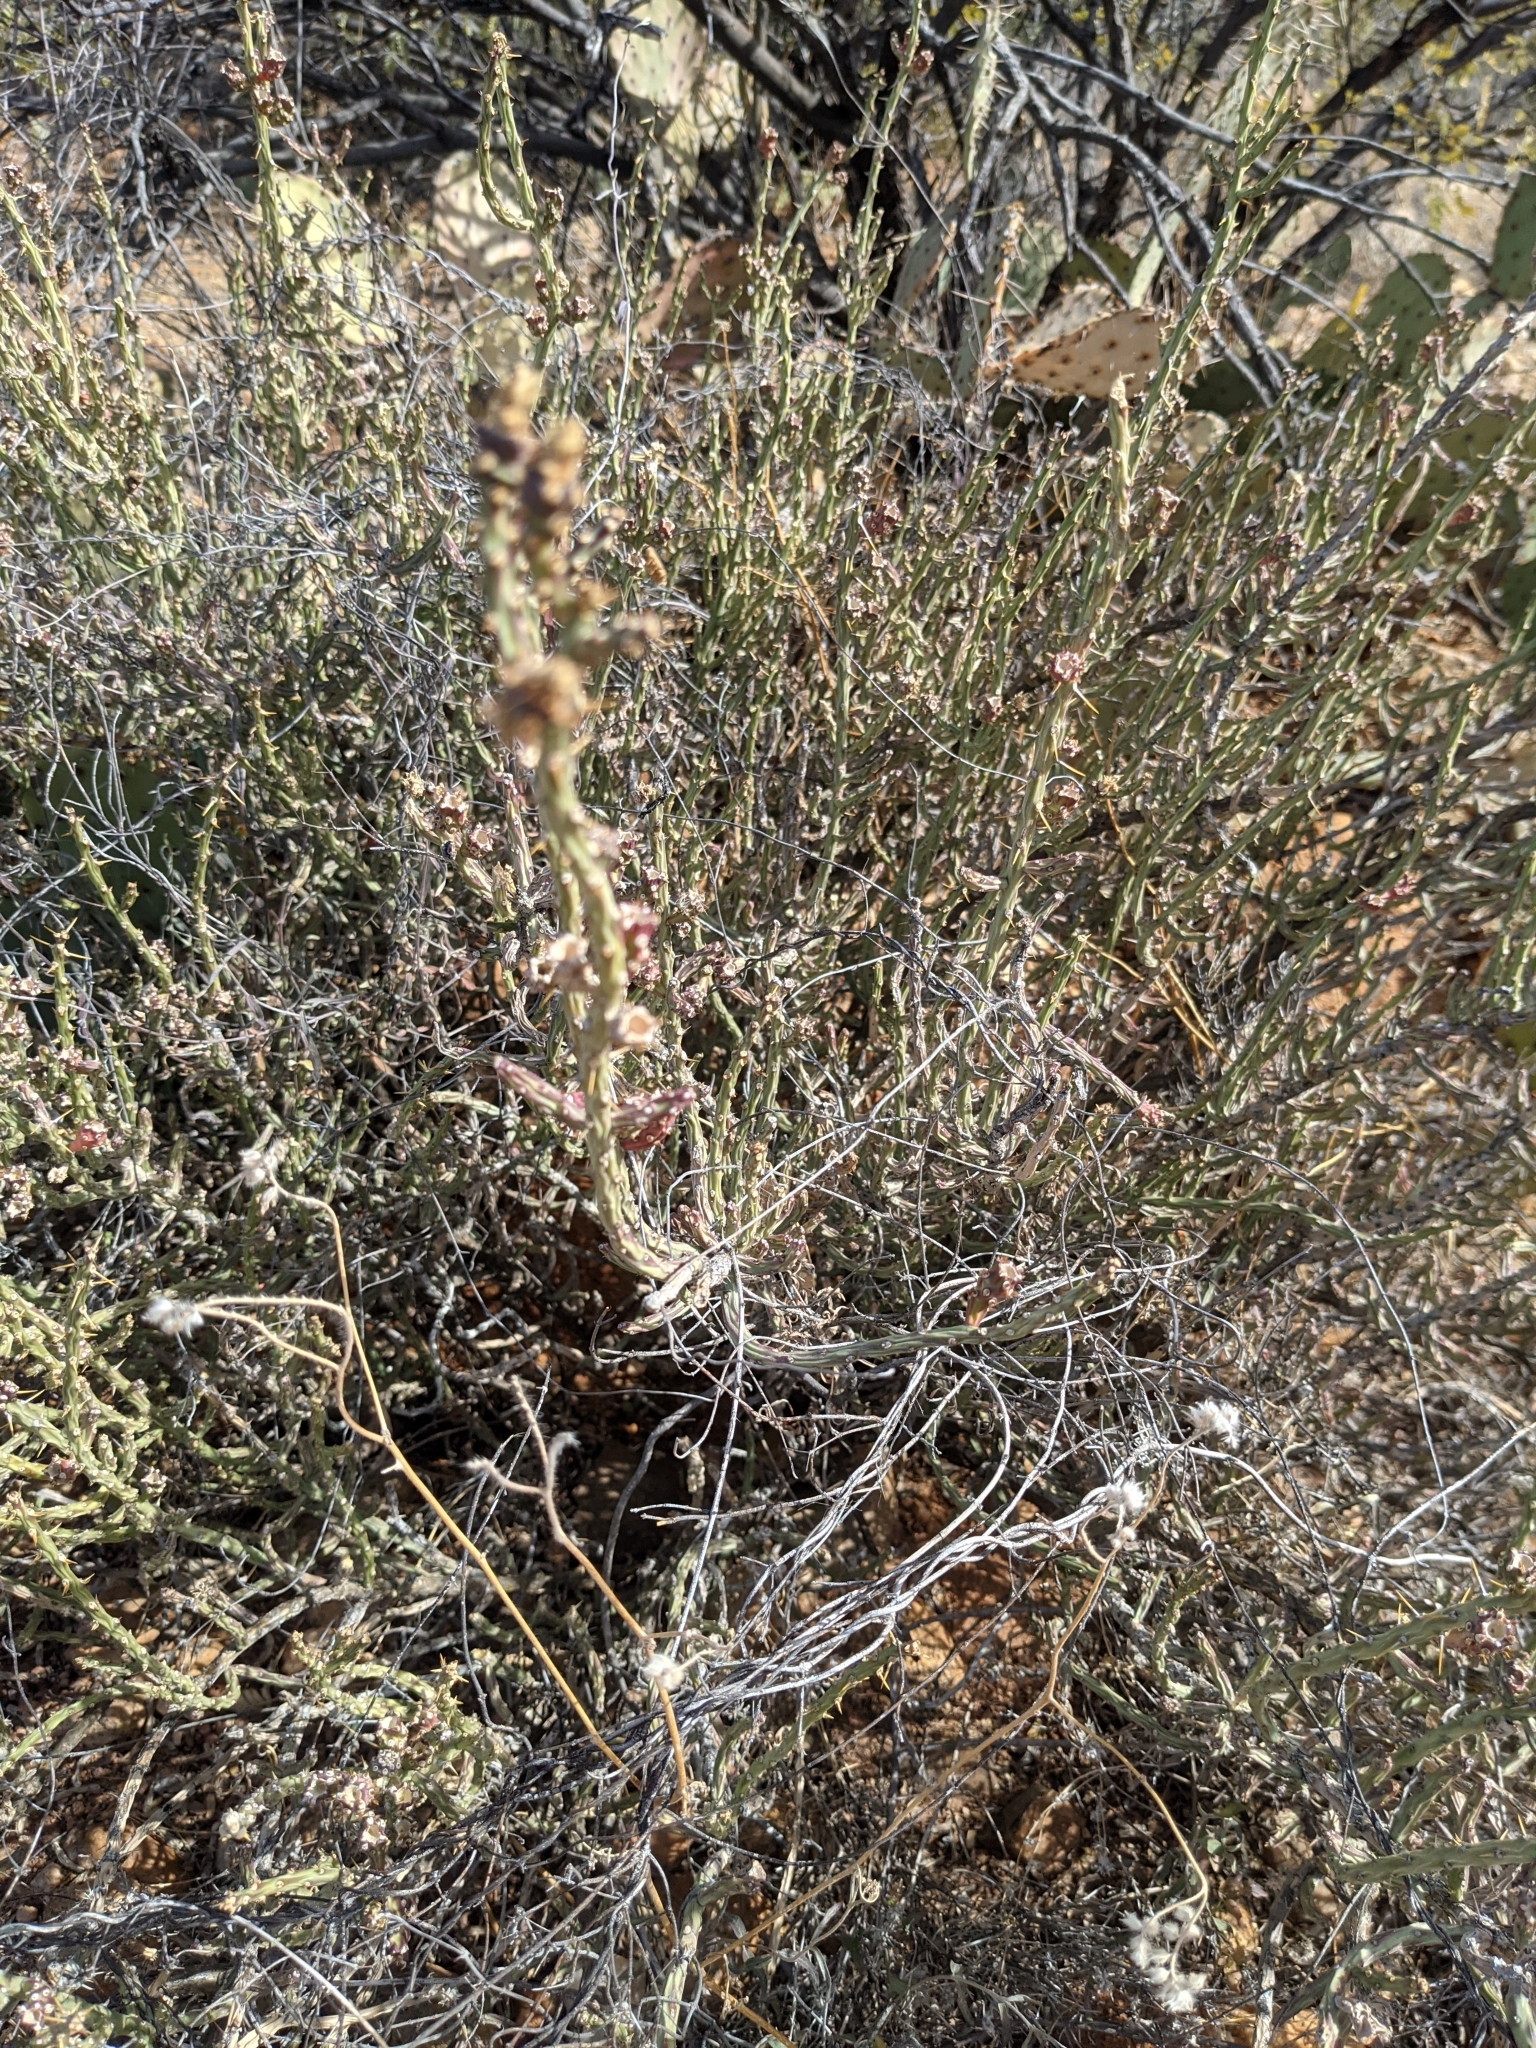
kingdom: Plantae
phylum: Tracheophyta
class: Magnoliopsida
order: Caryophyllales
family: Cactaceae
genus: Cylindropuntia
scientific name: Cylindropuntia leptocaulis
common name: Christmas cactus
